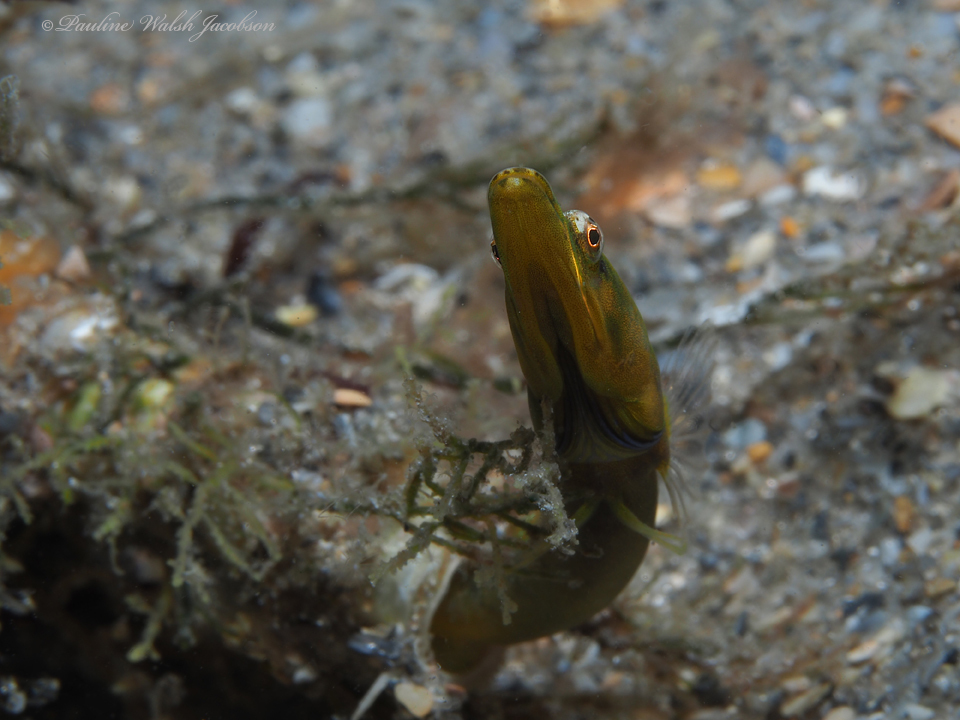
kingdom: Animalia
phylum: Chordata
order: Perciformes
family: Chaenopsidae
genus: Chaenopsis
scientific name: Chaenopsis ocellata
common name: Bluethroat pikeblenny
